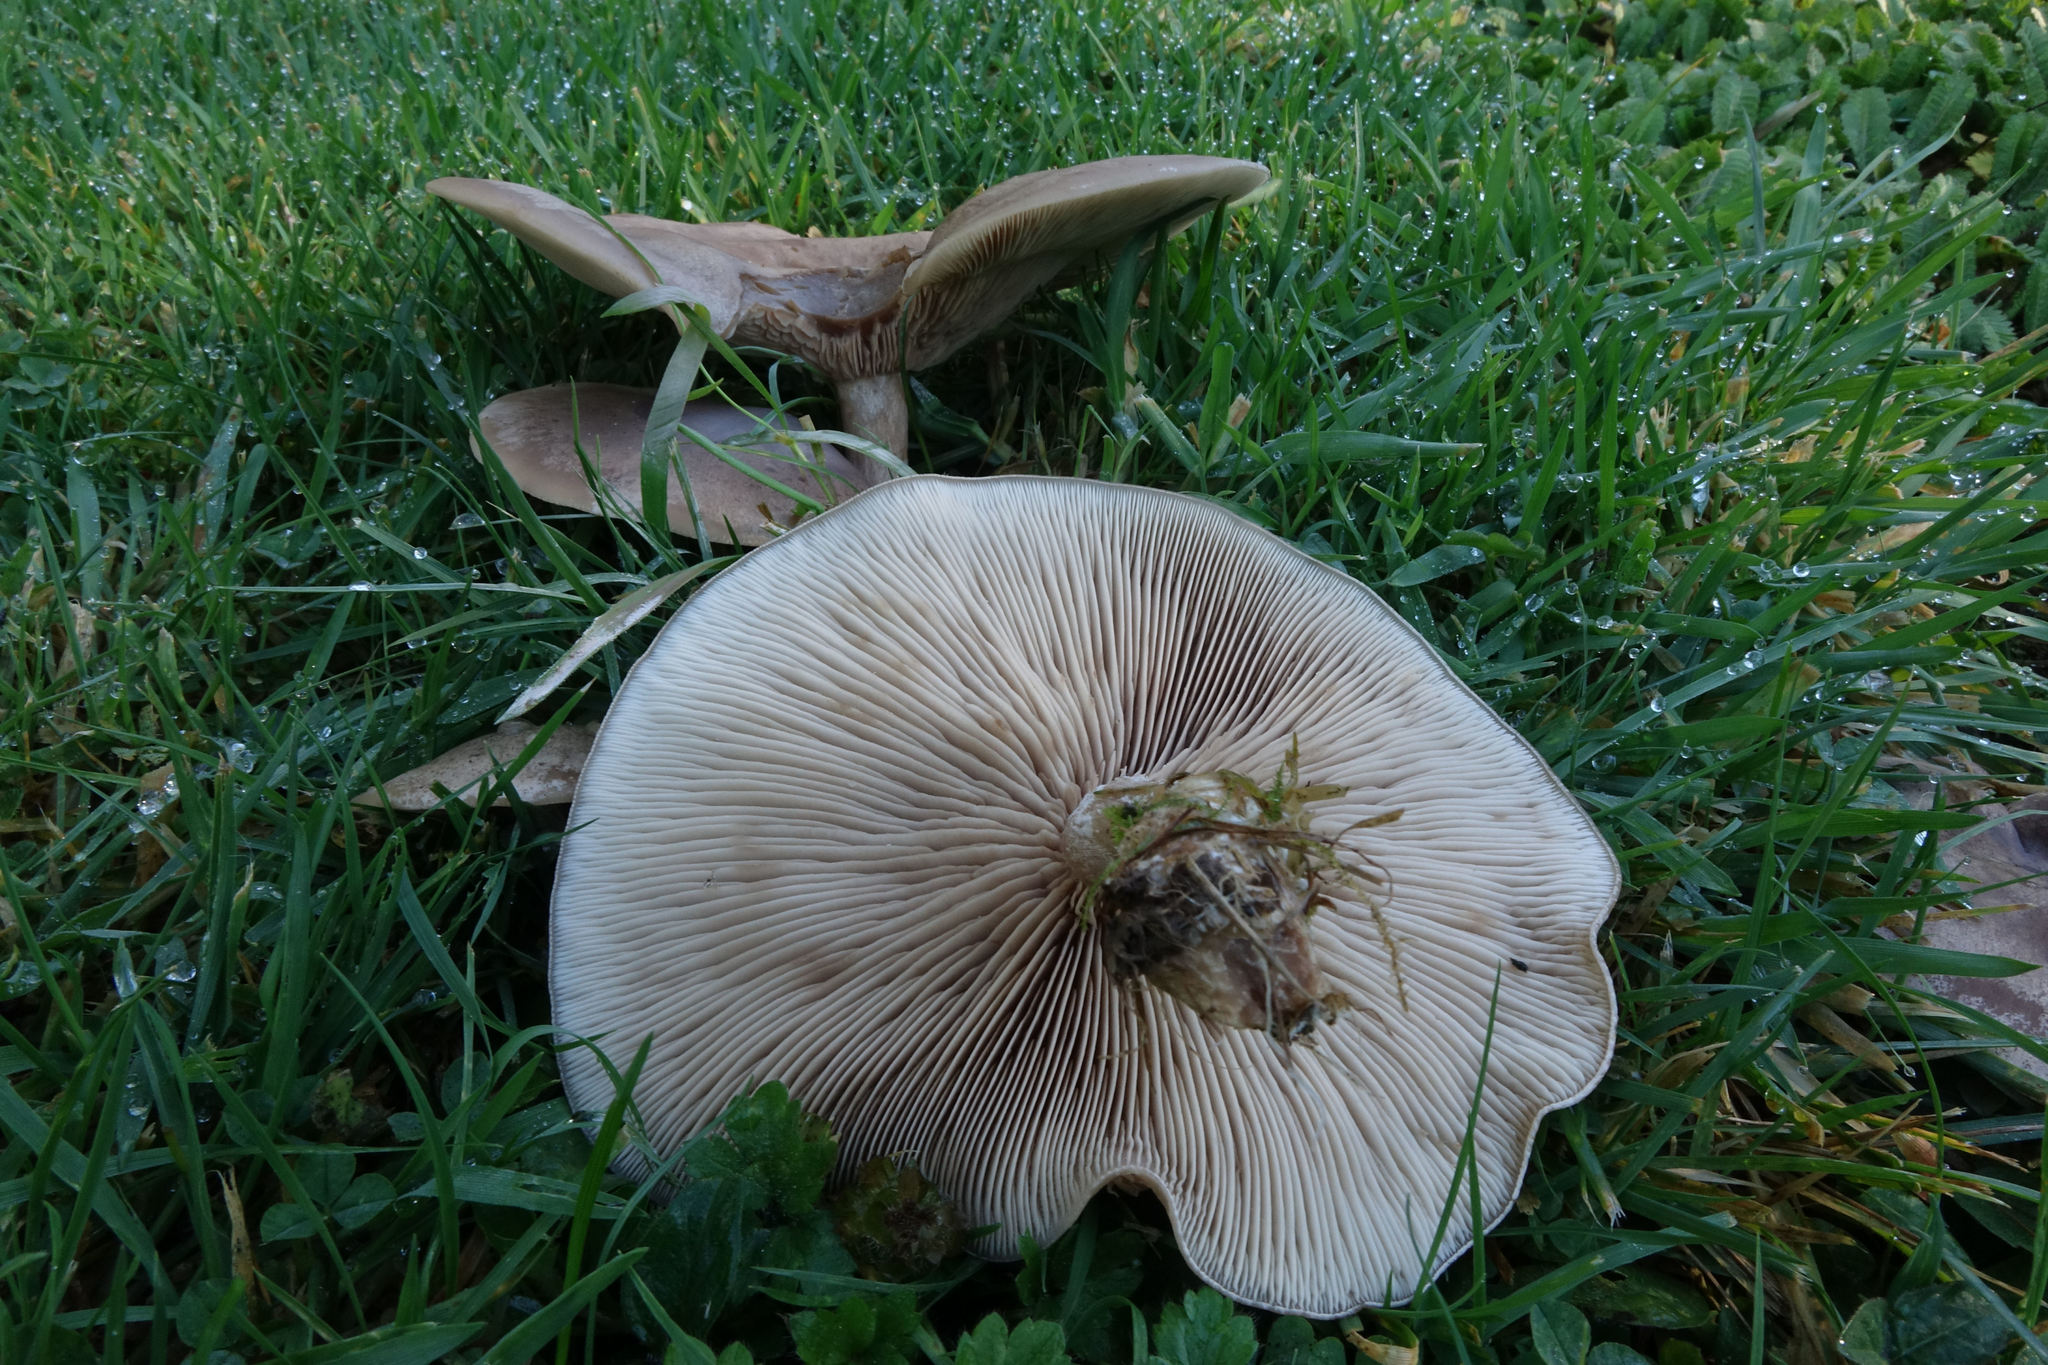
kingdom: Fungi
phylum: Basidiomycota
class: Agaricomycetes
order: Agaricales
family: Tricholomataceae
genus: Lepista
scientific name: Lepista luscina
